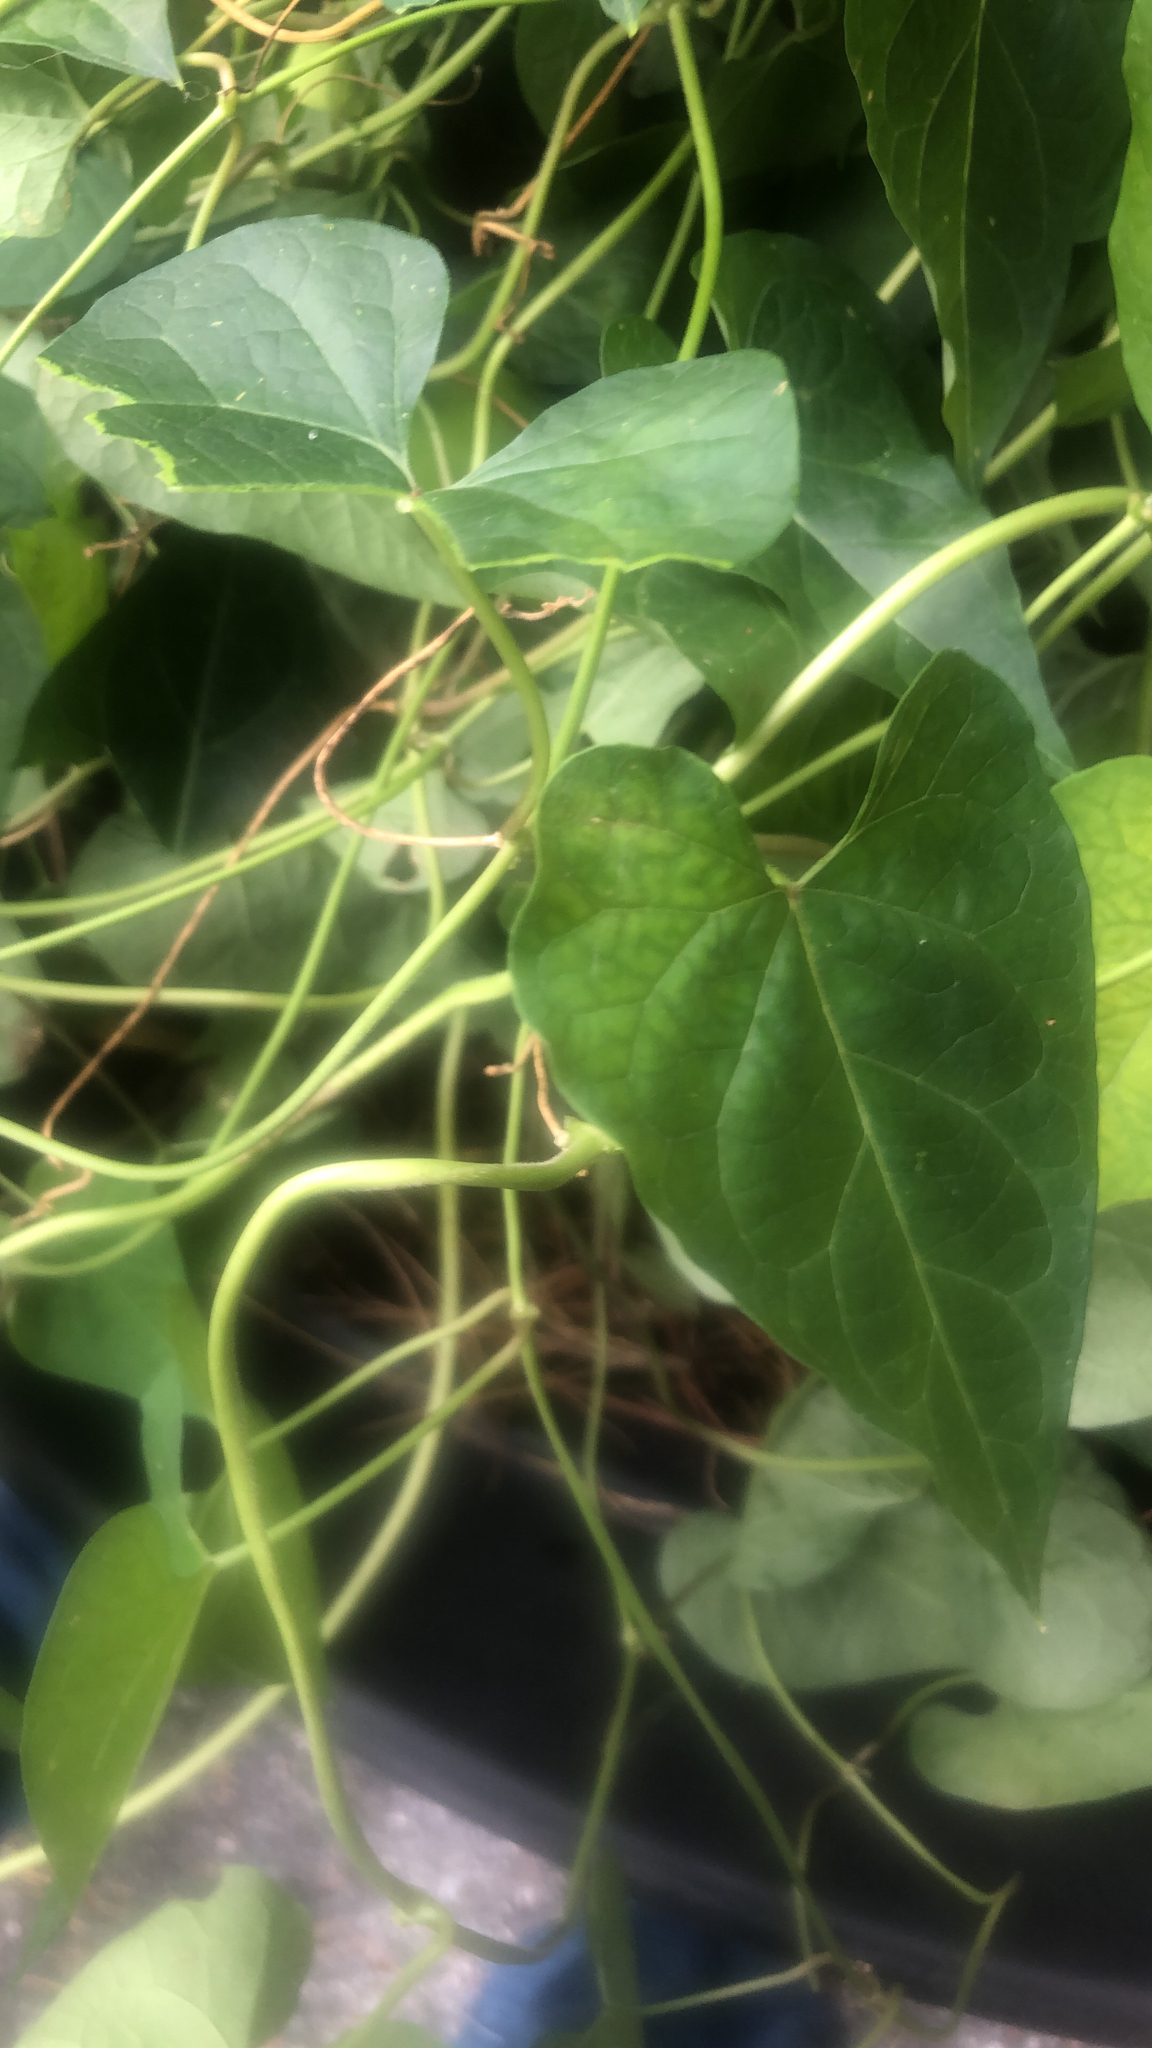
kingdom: Plantae
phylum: Tracheophyta
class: Magnoliopsida
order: Gentianales
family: Apocynaceae
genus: Cynanchum
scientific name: Cynanchum laeve
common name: Sandvine
